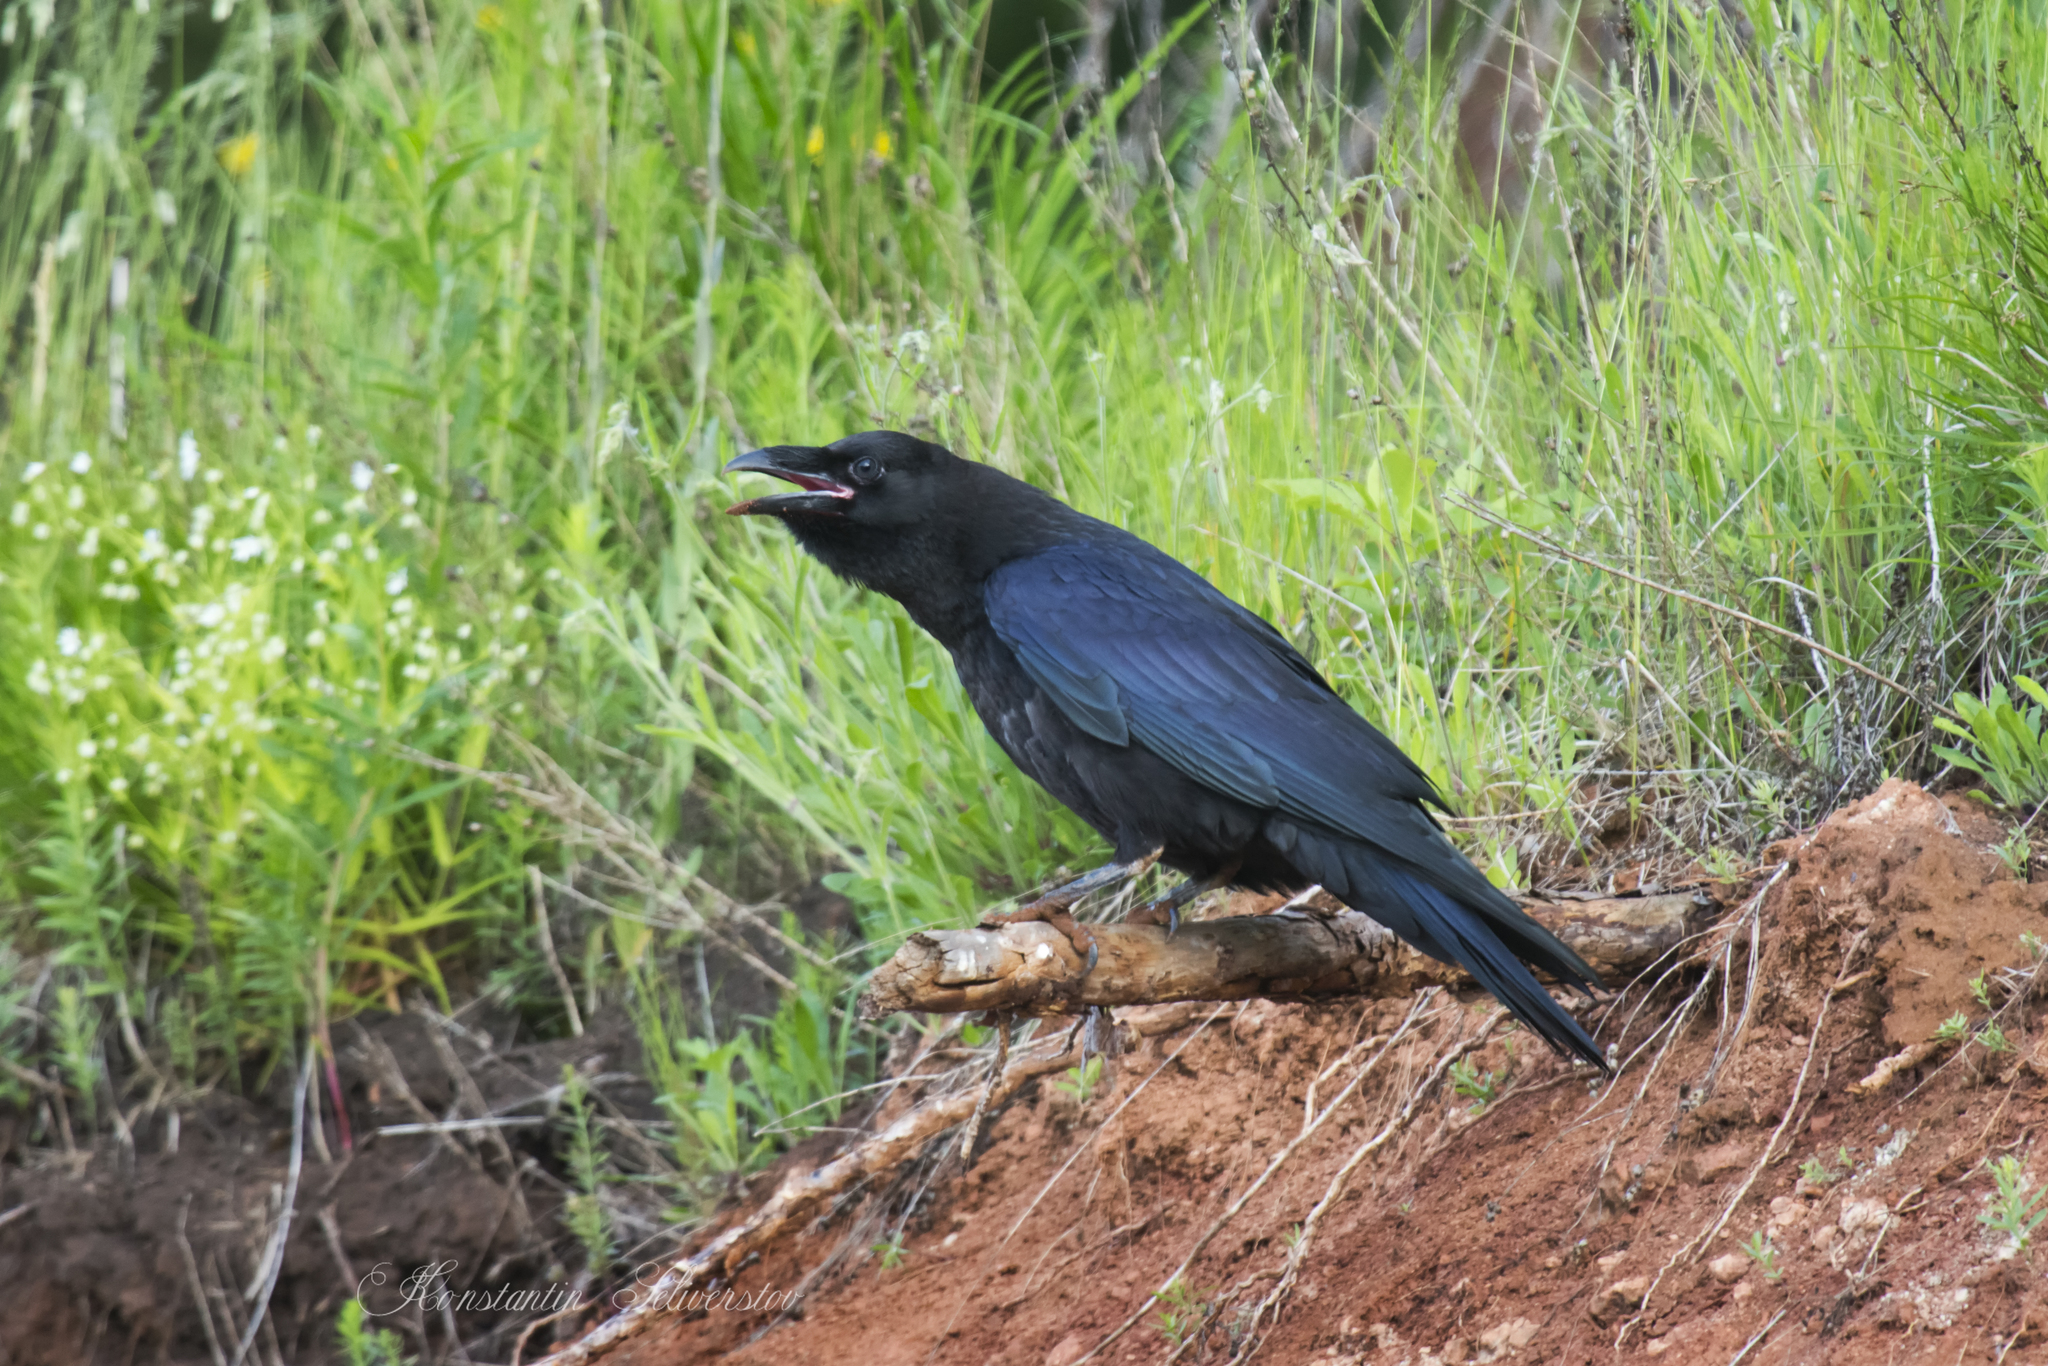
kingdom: Animalia
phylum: Chordata
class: Aves
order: Passeriformes
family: Corvidae
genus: Corvus
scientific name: Corvus corax
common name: Common raven
